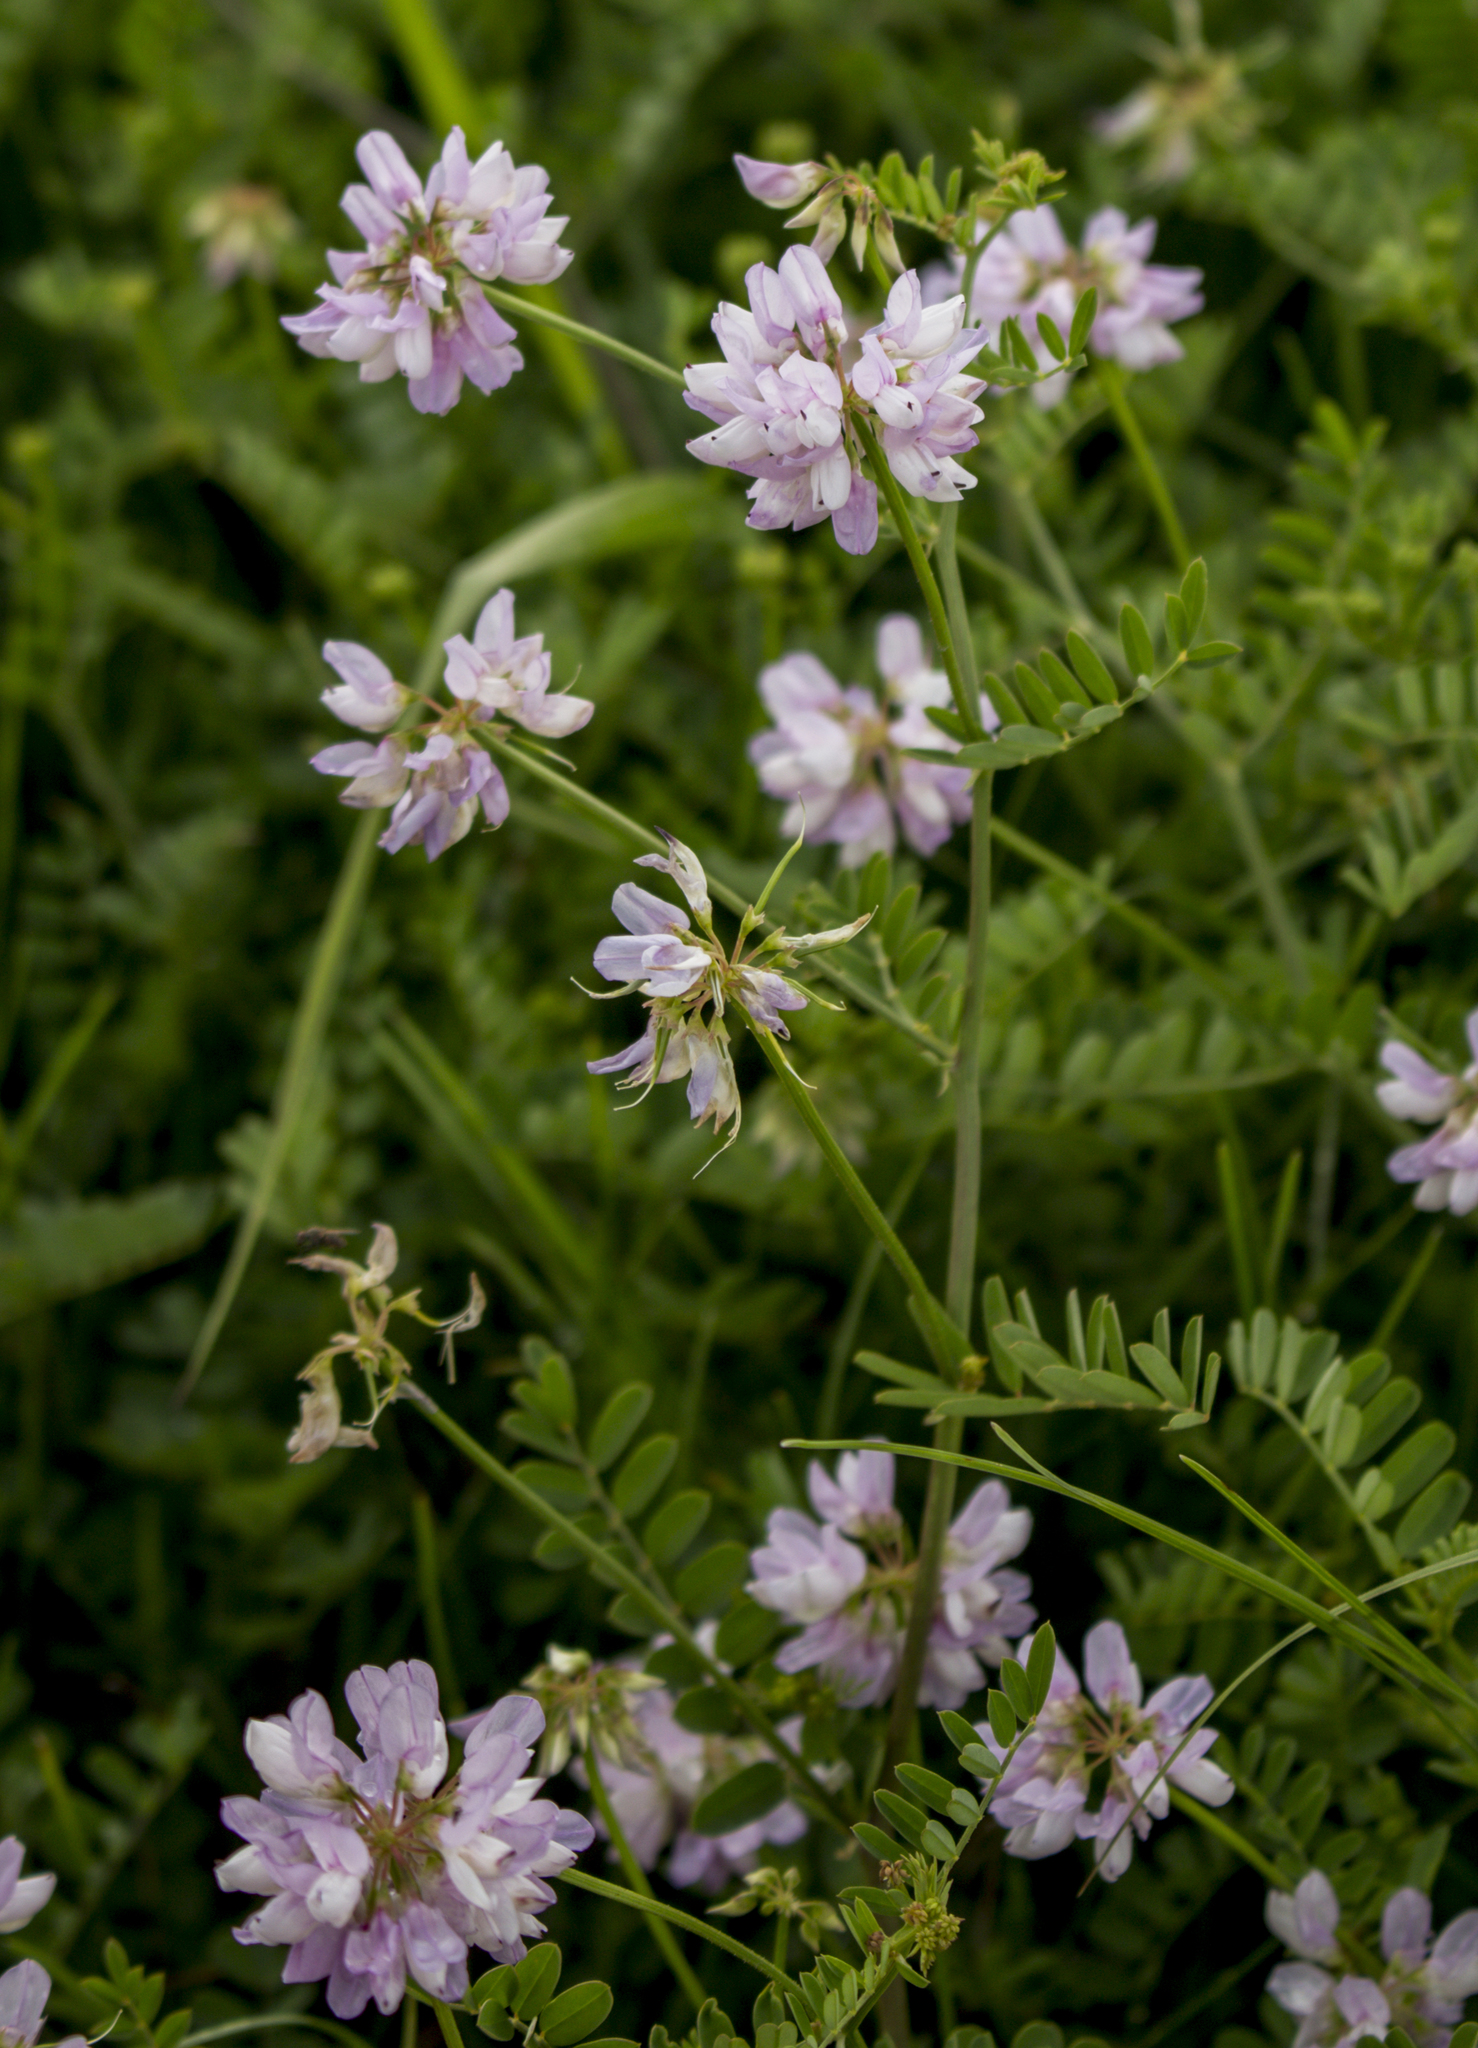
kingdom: Plantae
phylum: Tracheophyta
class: Magnoliopsida
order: Fabales
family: Fabaceae
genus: Coronilla
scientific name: Coronilla varia
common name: Crownvetch
